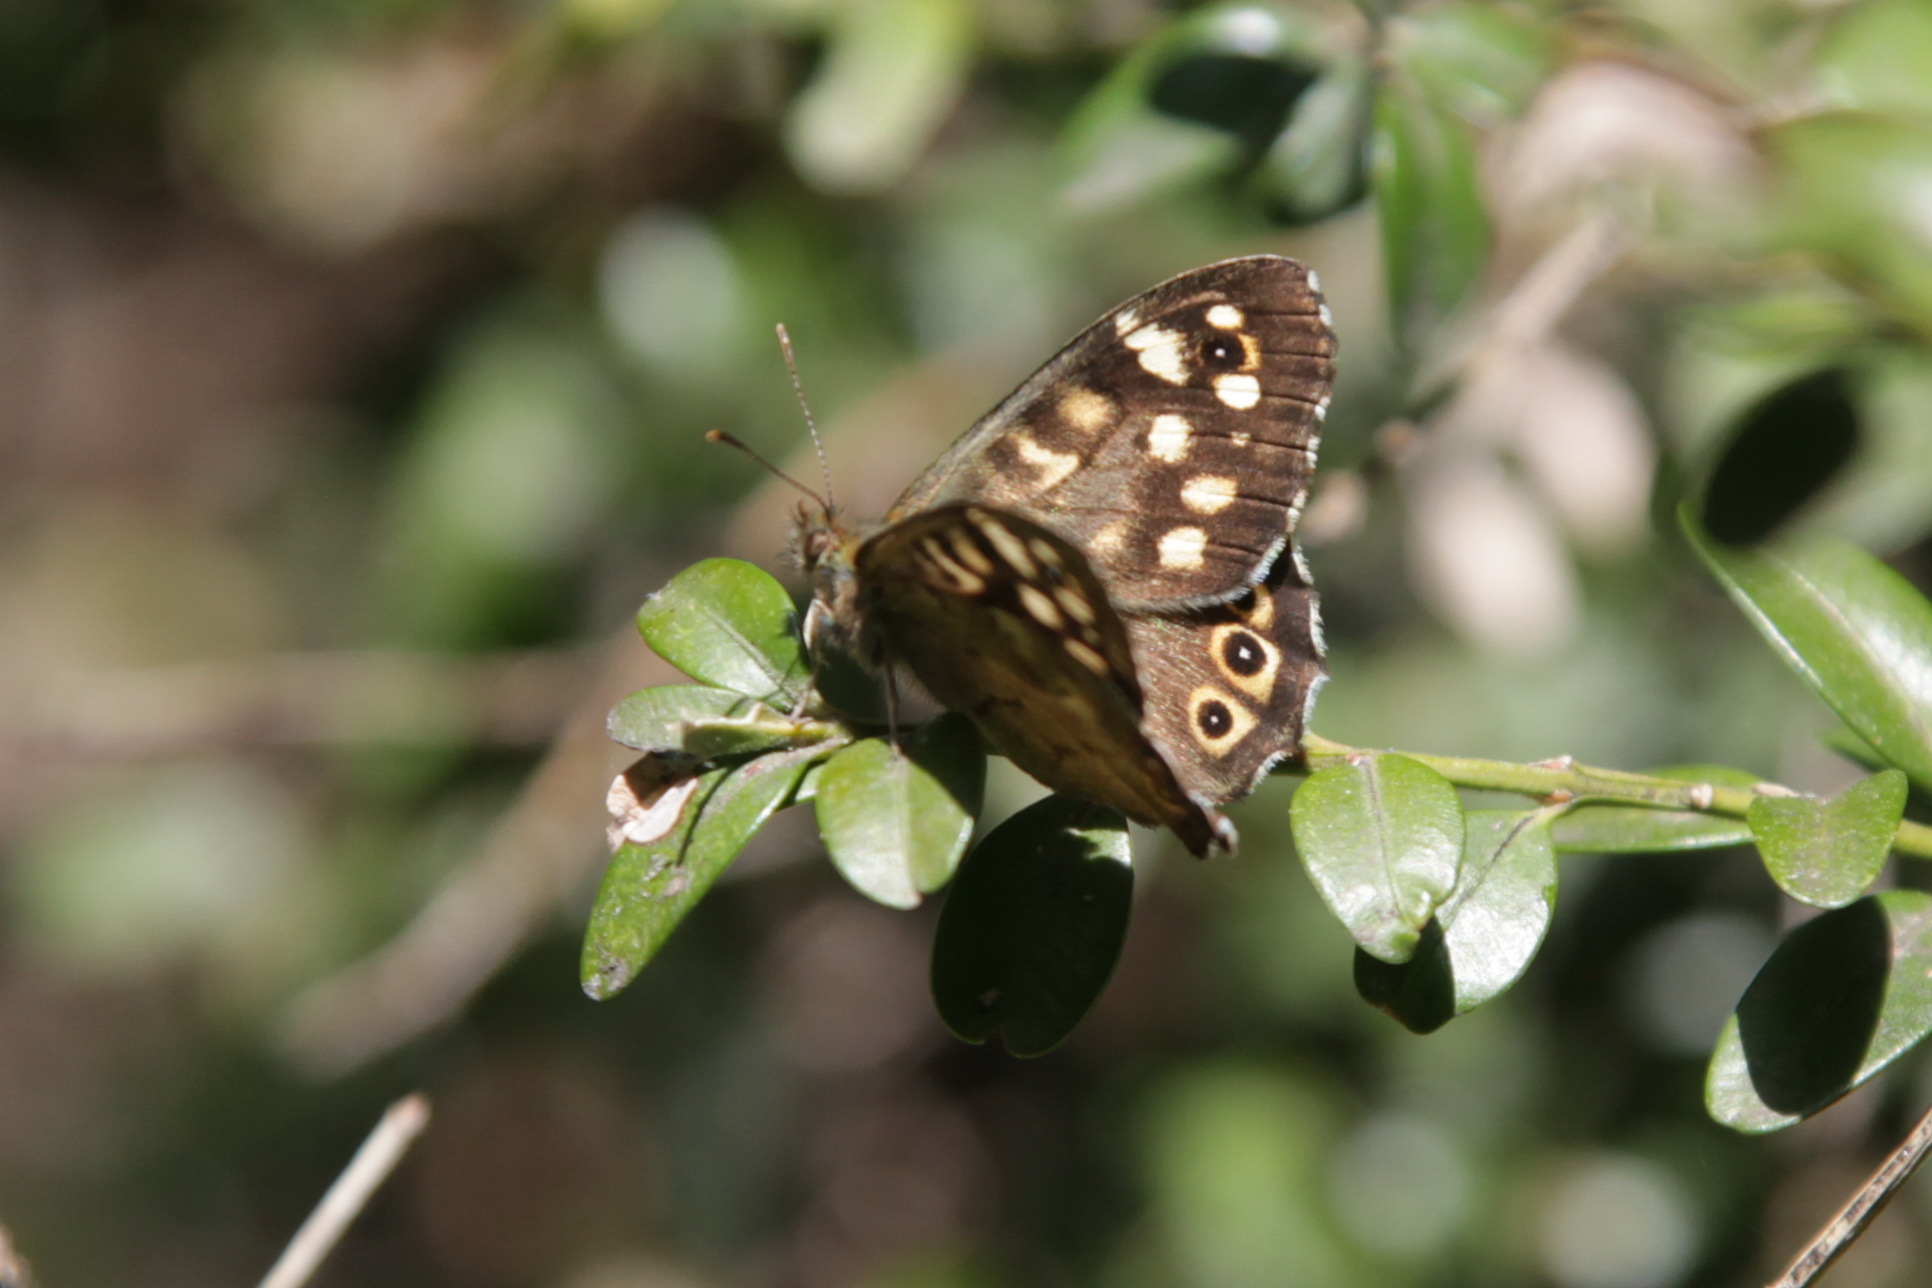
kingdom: Animalia
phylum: Arthropoda
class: Insecta
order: Lepidoptera
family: Nymphalidae
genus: Pararge
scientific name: Pararge aegeria
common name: Speckled wood
